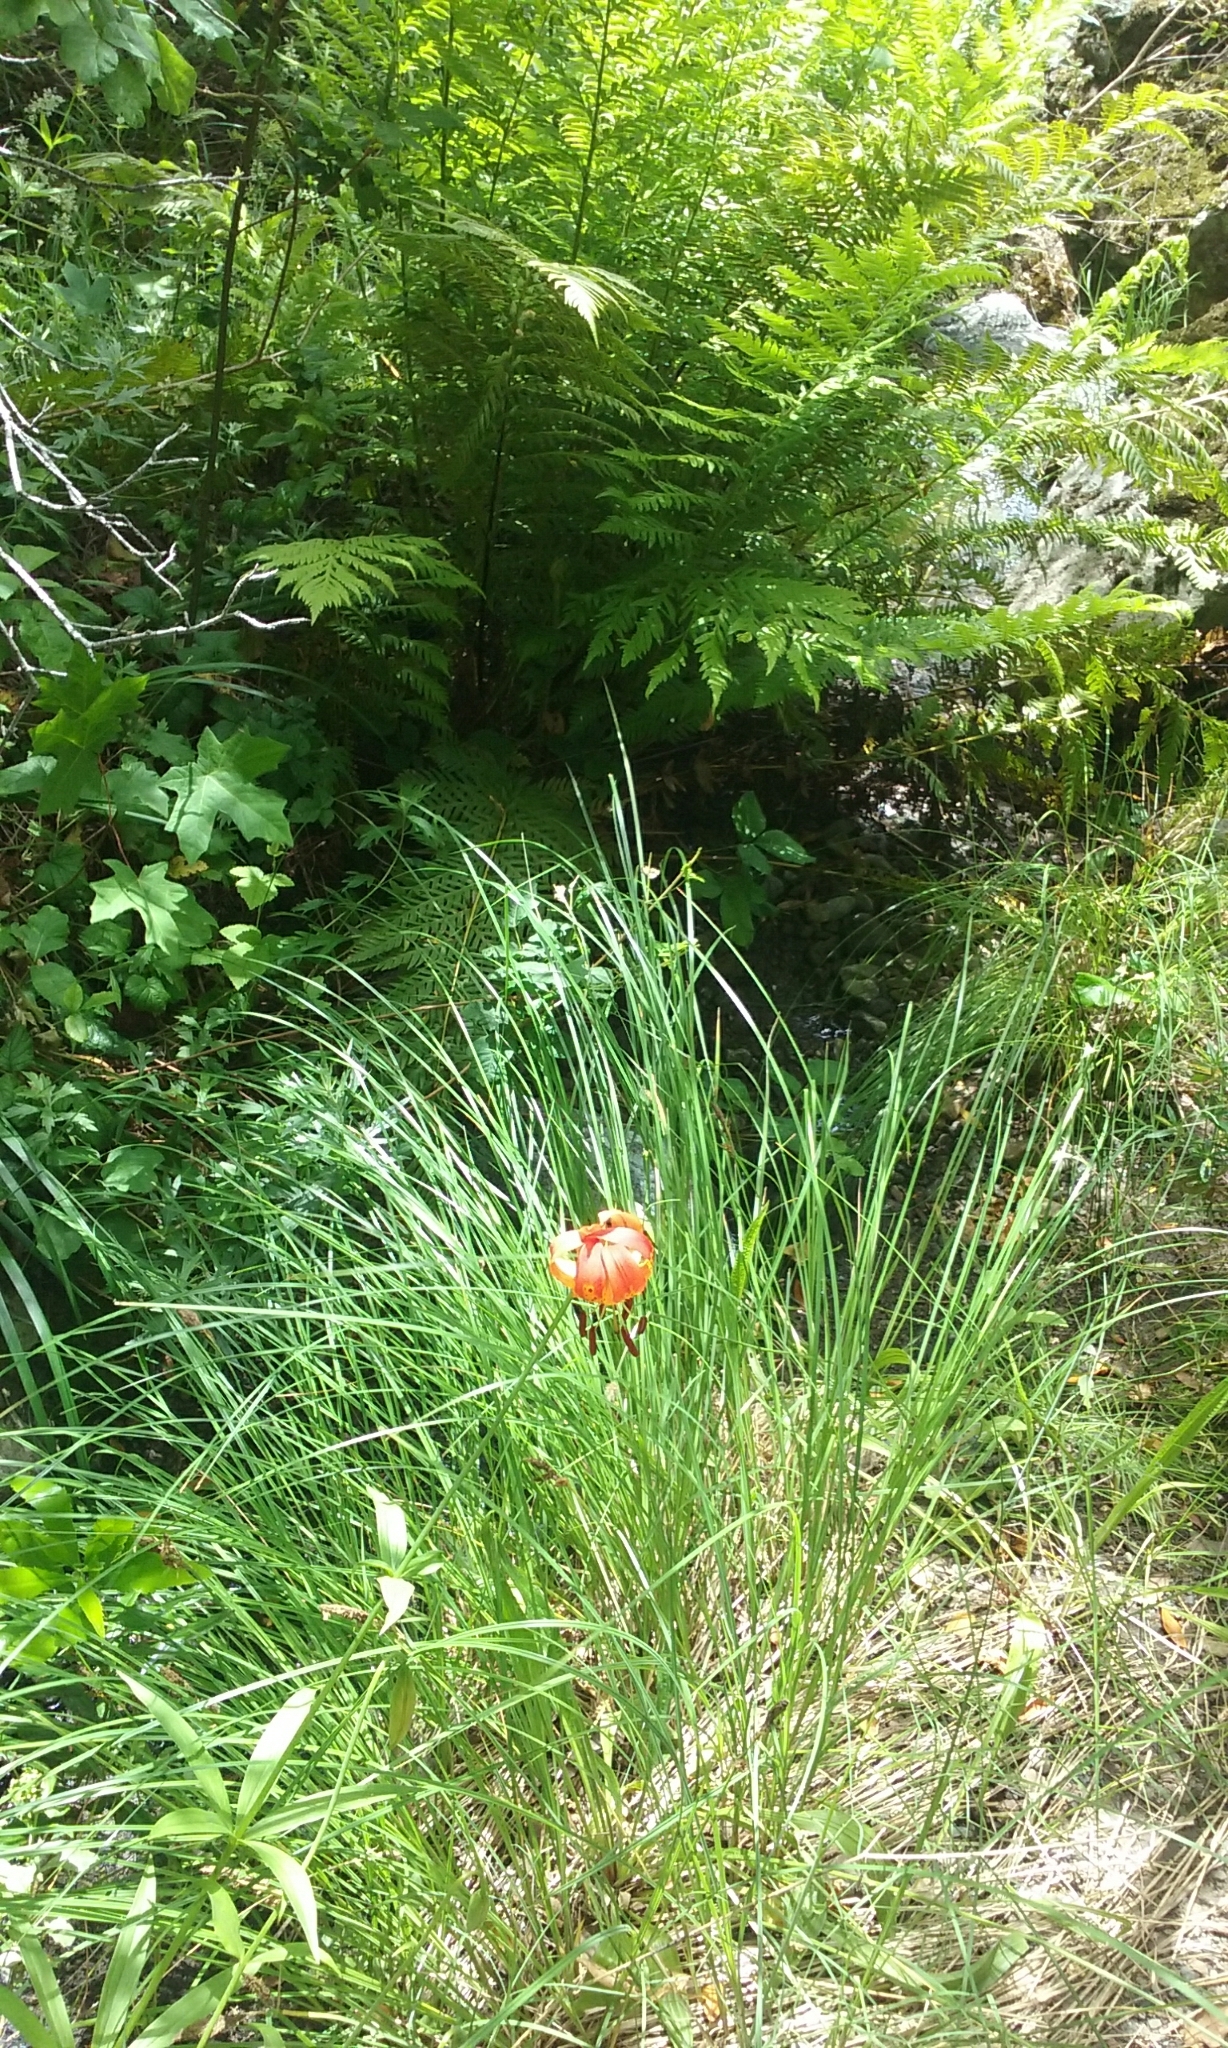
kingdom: Plantae
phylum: Tracheophyta
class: Liliopsida
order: Liliales
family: Liliaceae
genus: Lilium
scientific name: Lilium pardalinum
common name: Panther lily
